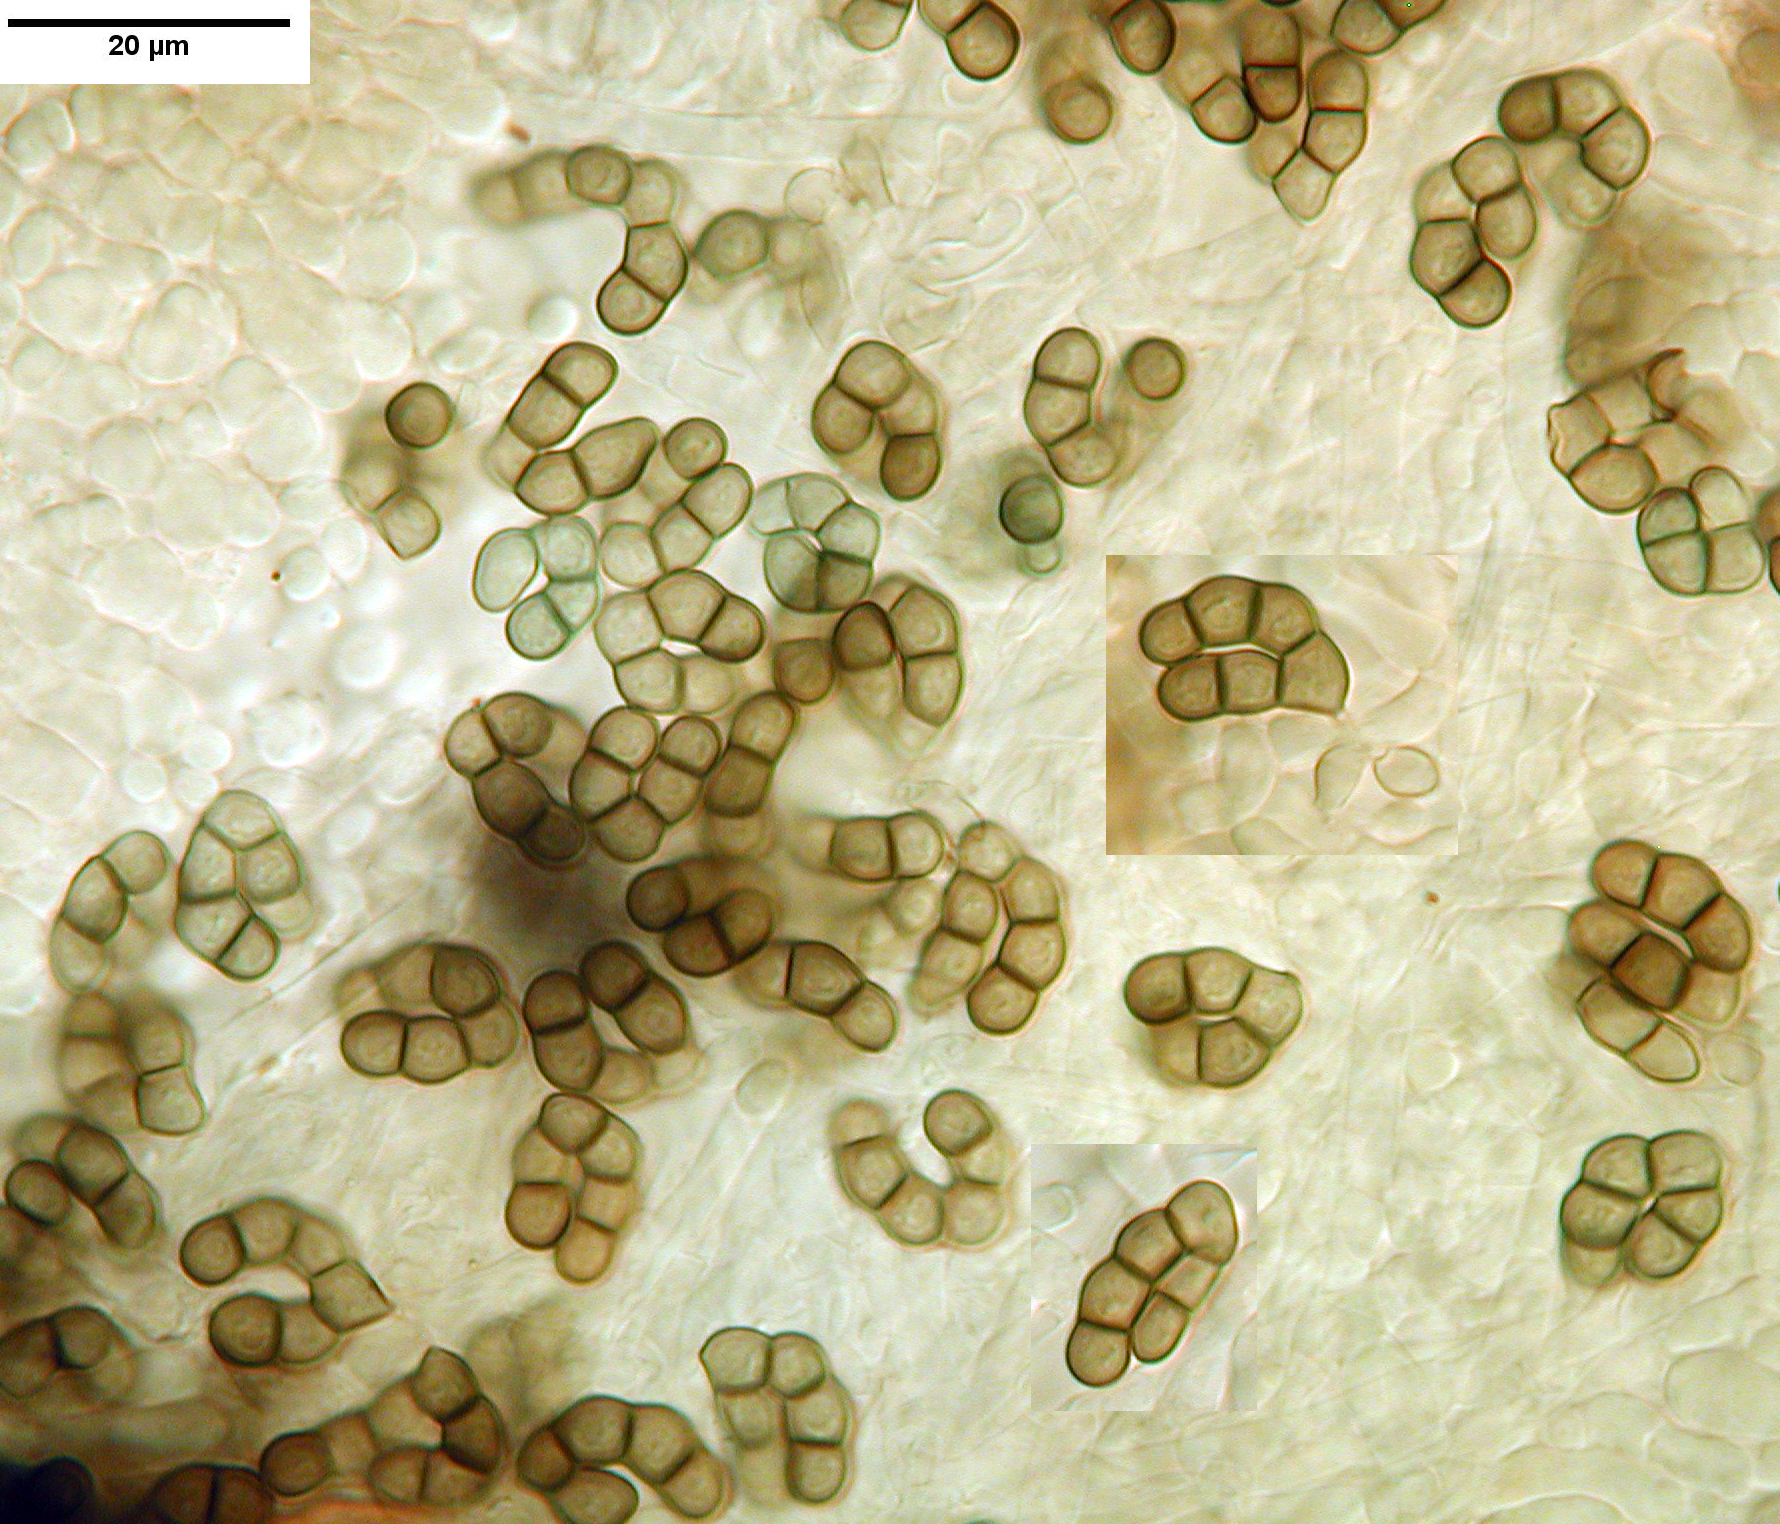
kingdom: Fungi
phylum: Ascomycota
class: Leotiomycetes
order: Helotiales
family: Hyaloscyphaceae
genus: Eupezizella
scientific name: Eupezizella aureliella
